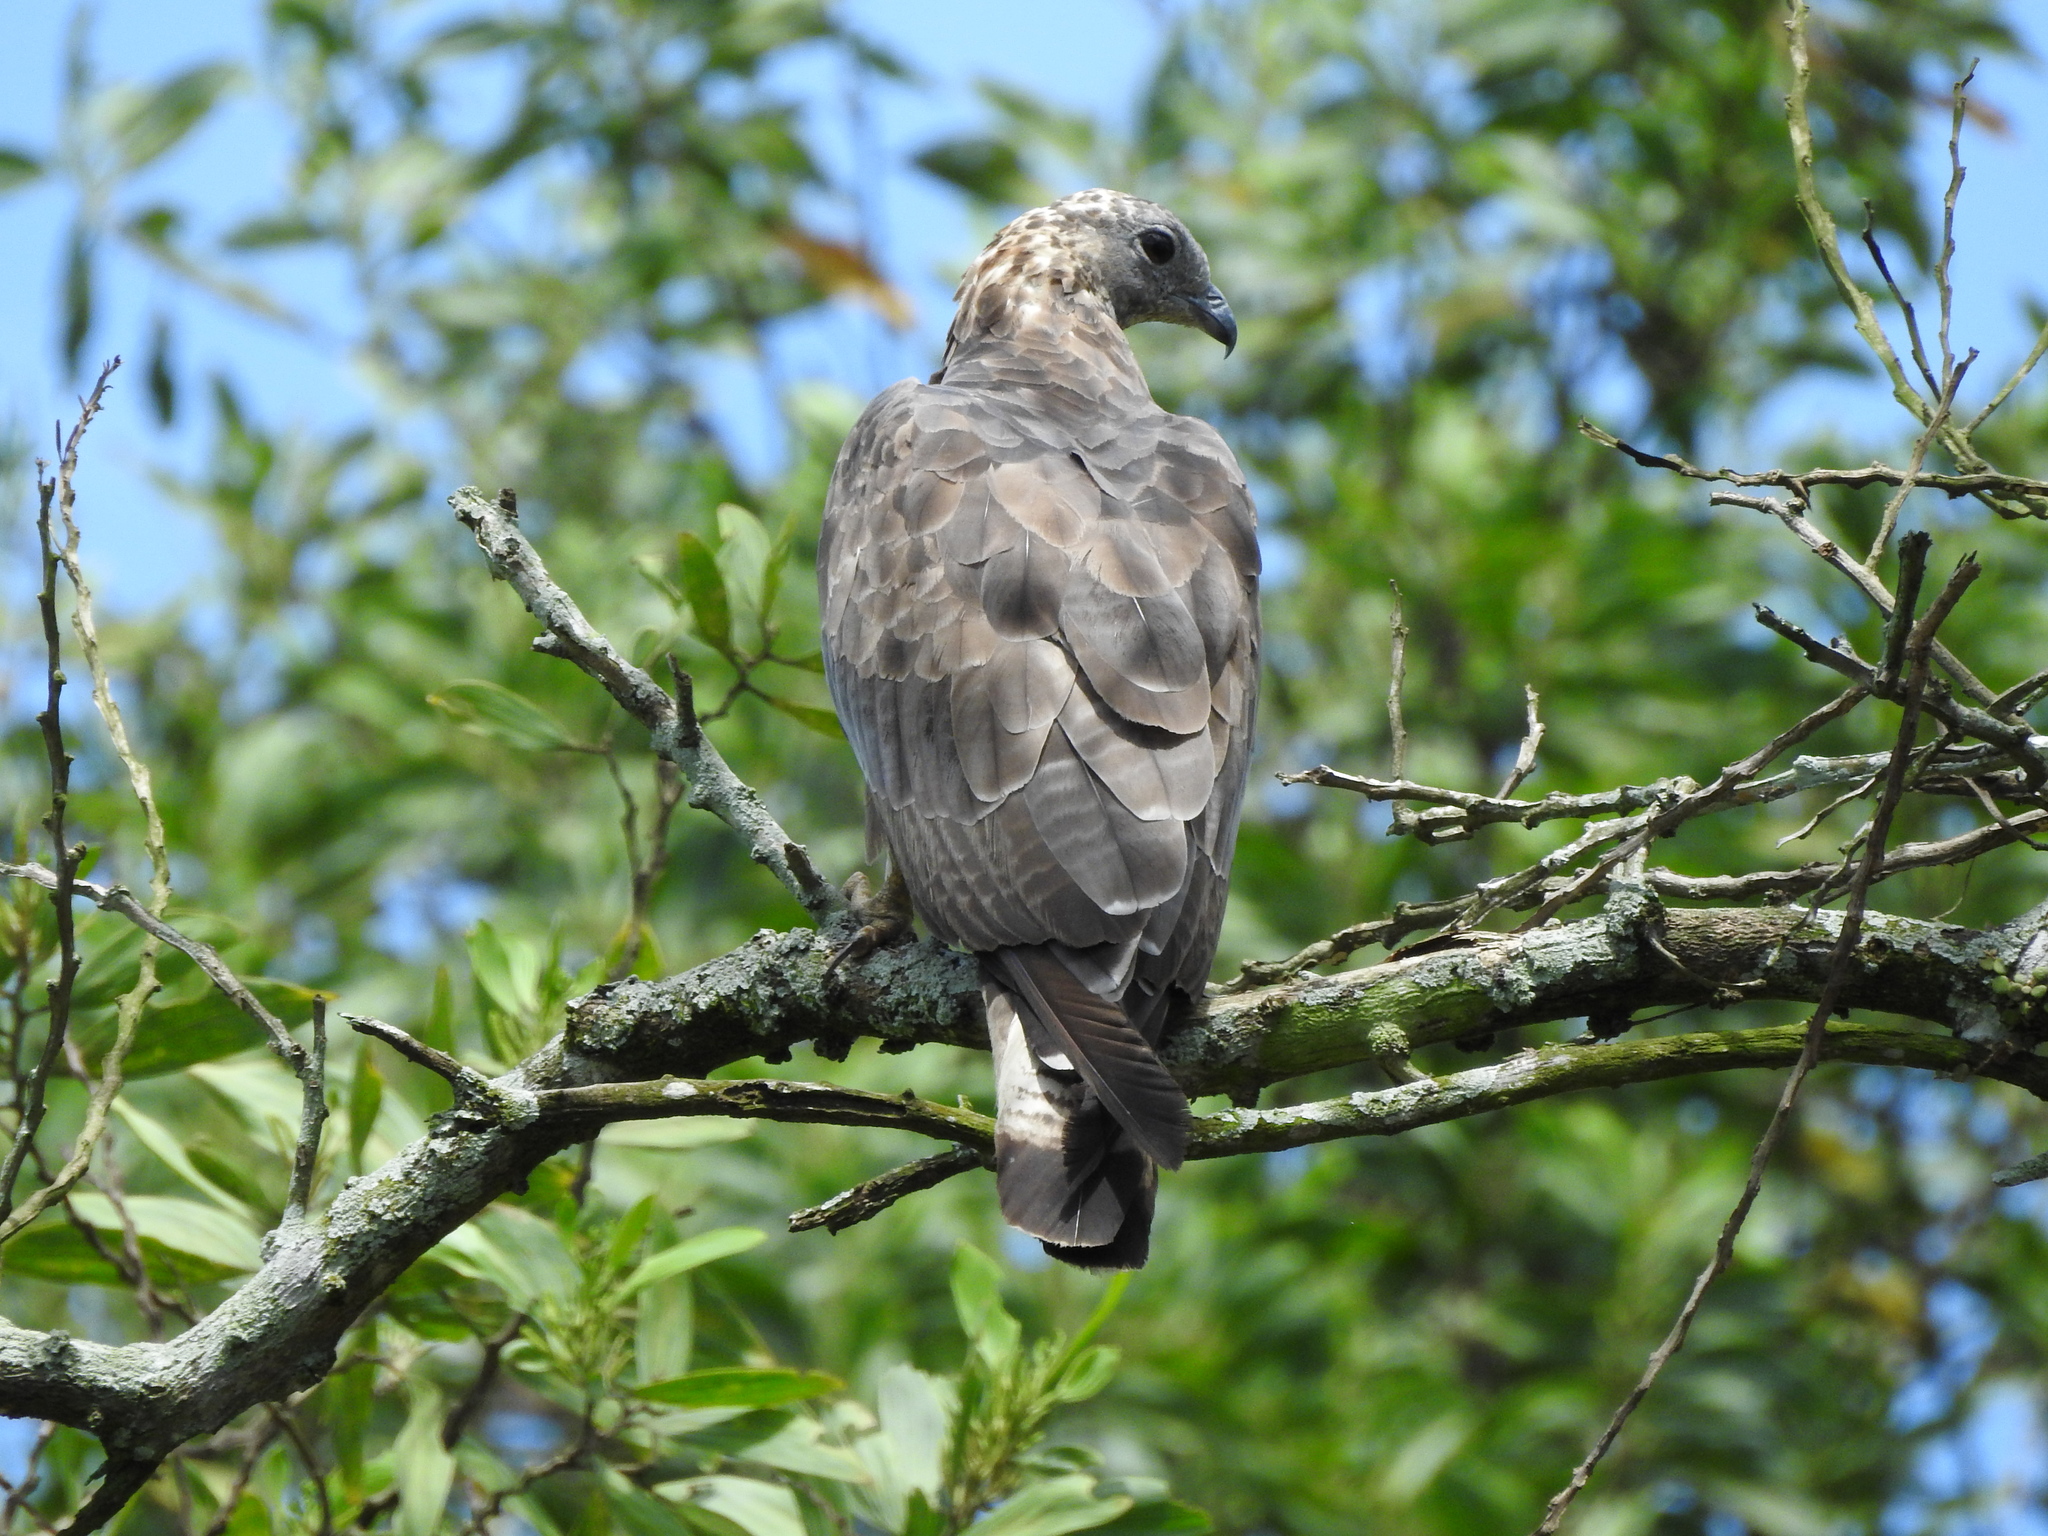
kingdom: Animalia
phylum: Chordata
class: Aves
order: Accipitriformes
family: Accipitridae
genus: Pernis
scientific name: Pernis ptilorhynchus
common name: Crested honey buzzard
